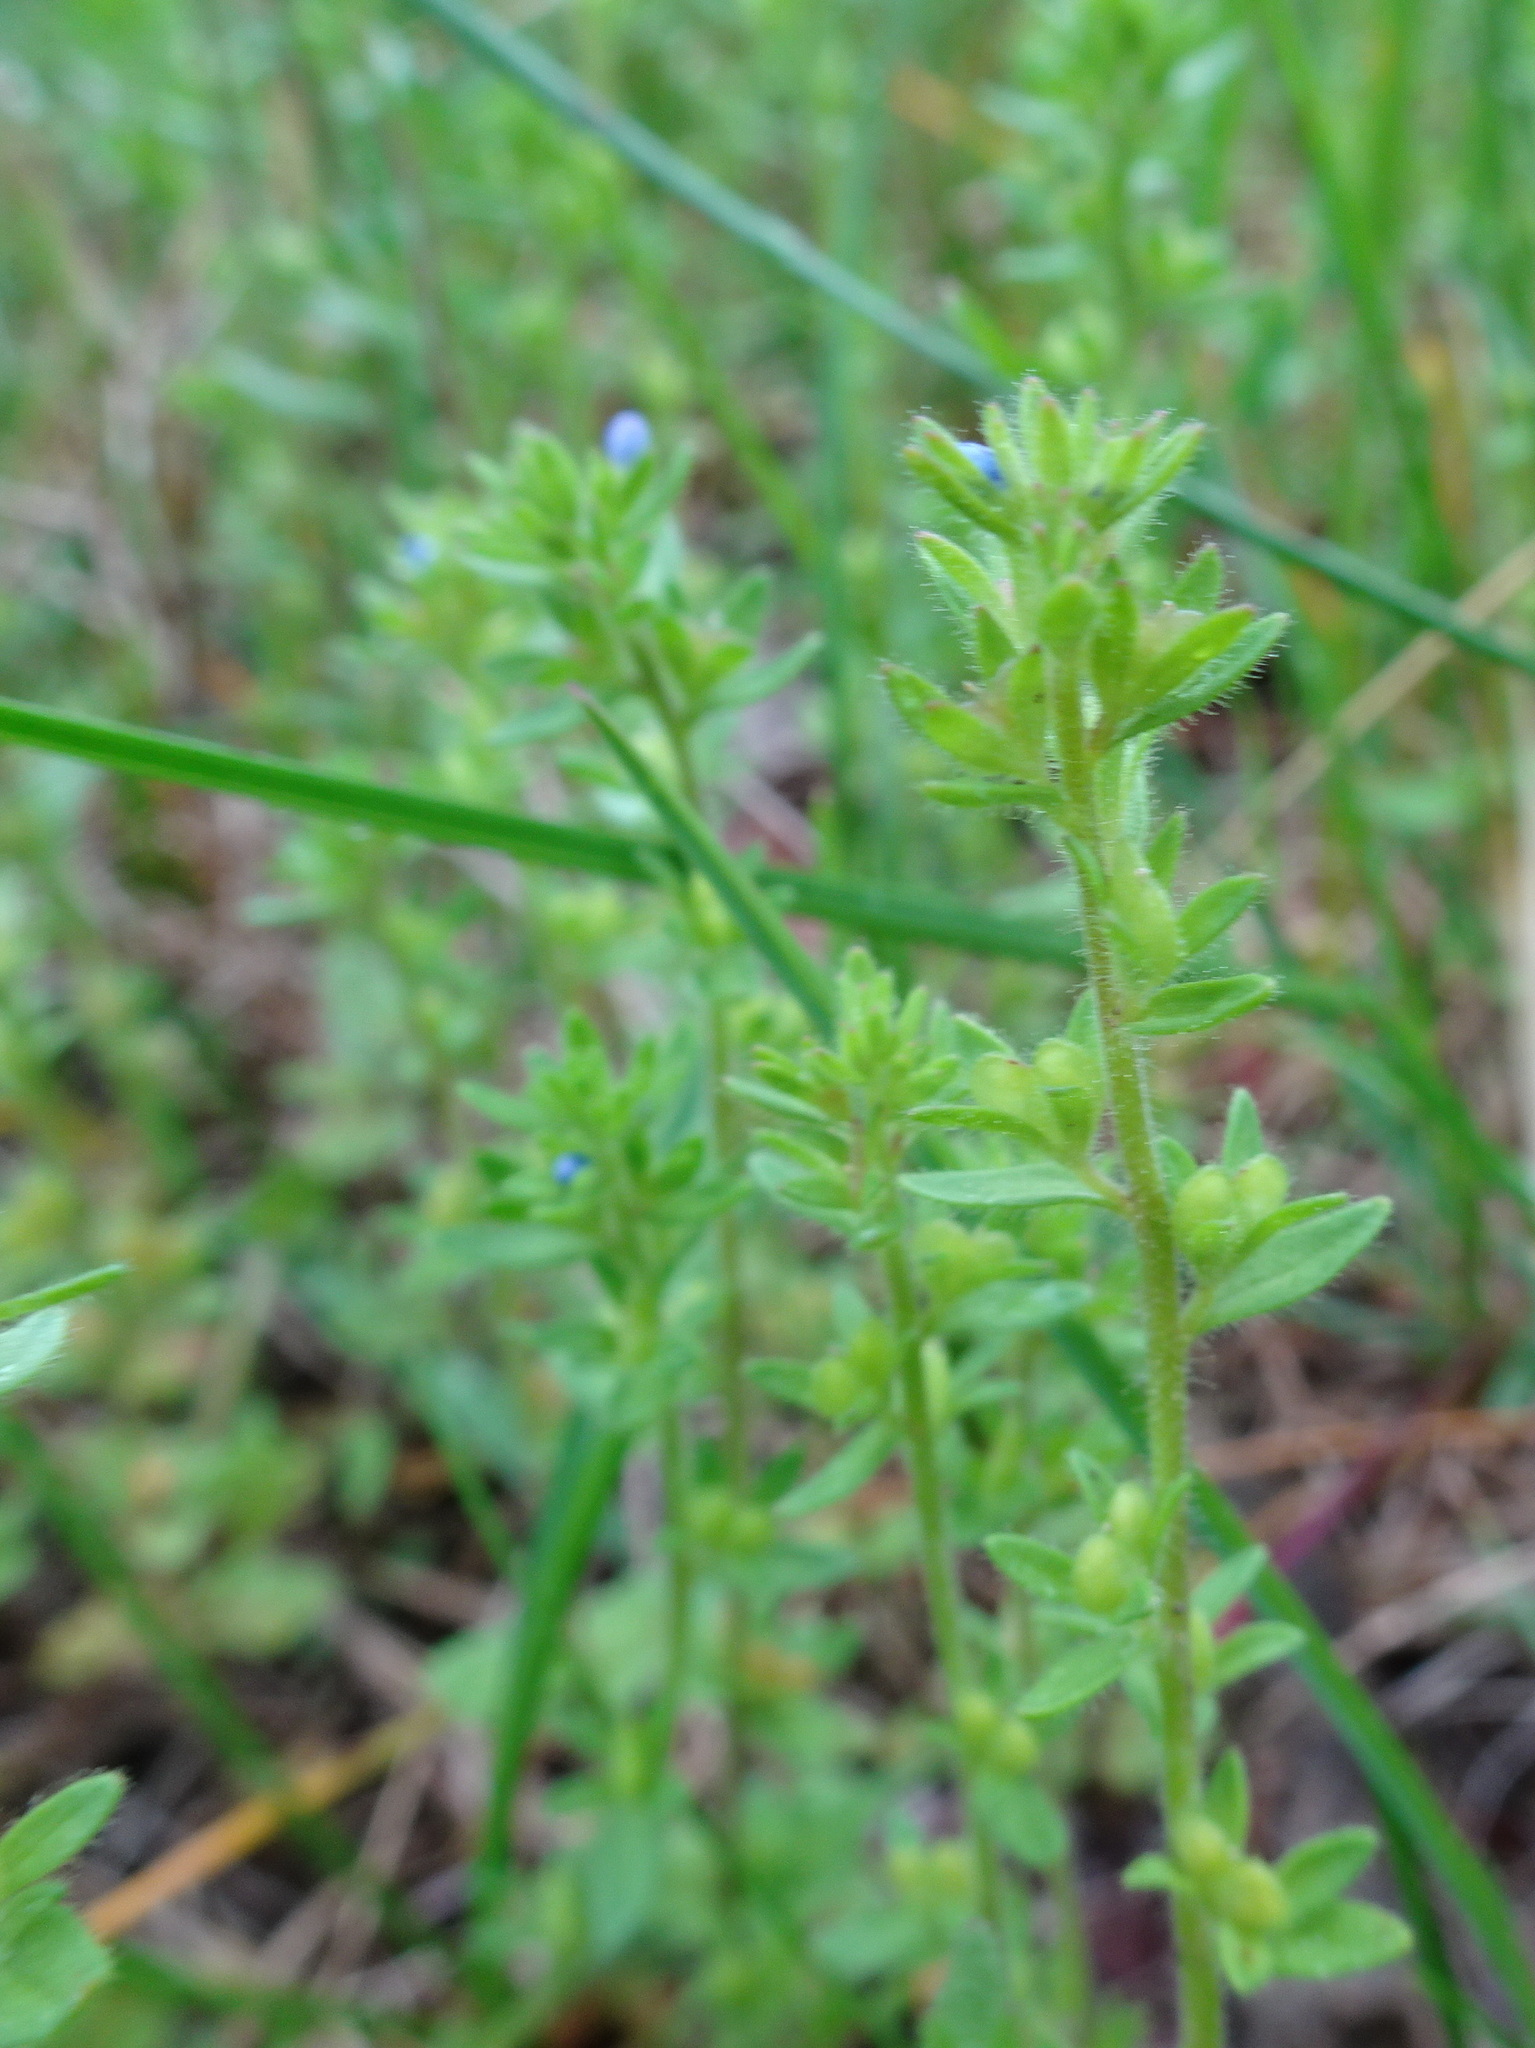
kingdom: Plantae
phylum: Tracheophyta
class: Magnoliopsida
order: Lamiales
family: Plantaginaceae
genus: Veronica
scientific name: Veronica arvensis
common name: Corn speedwell
